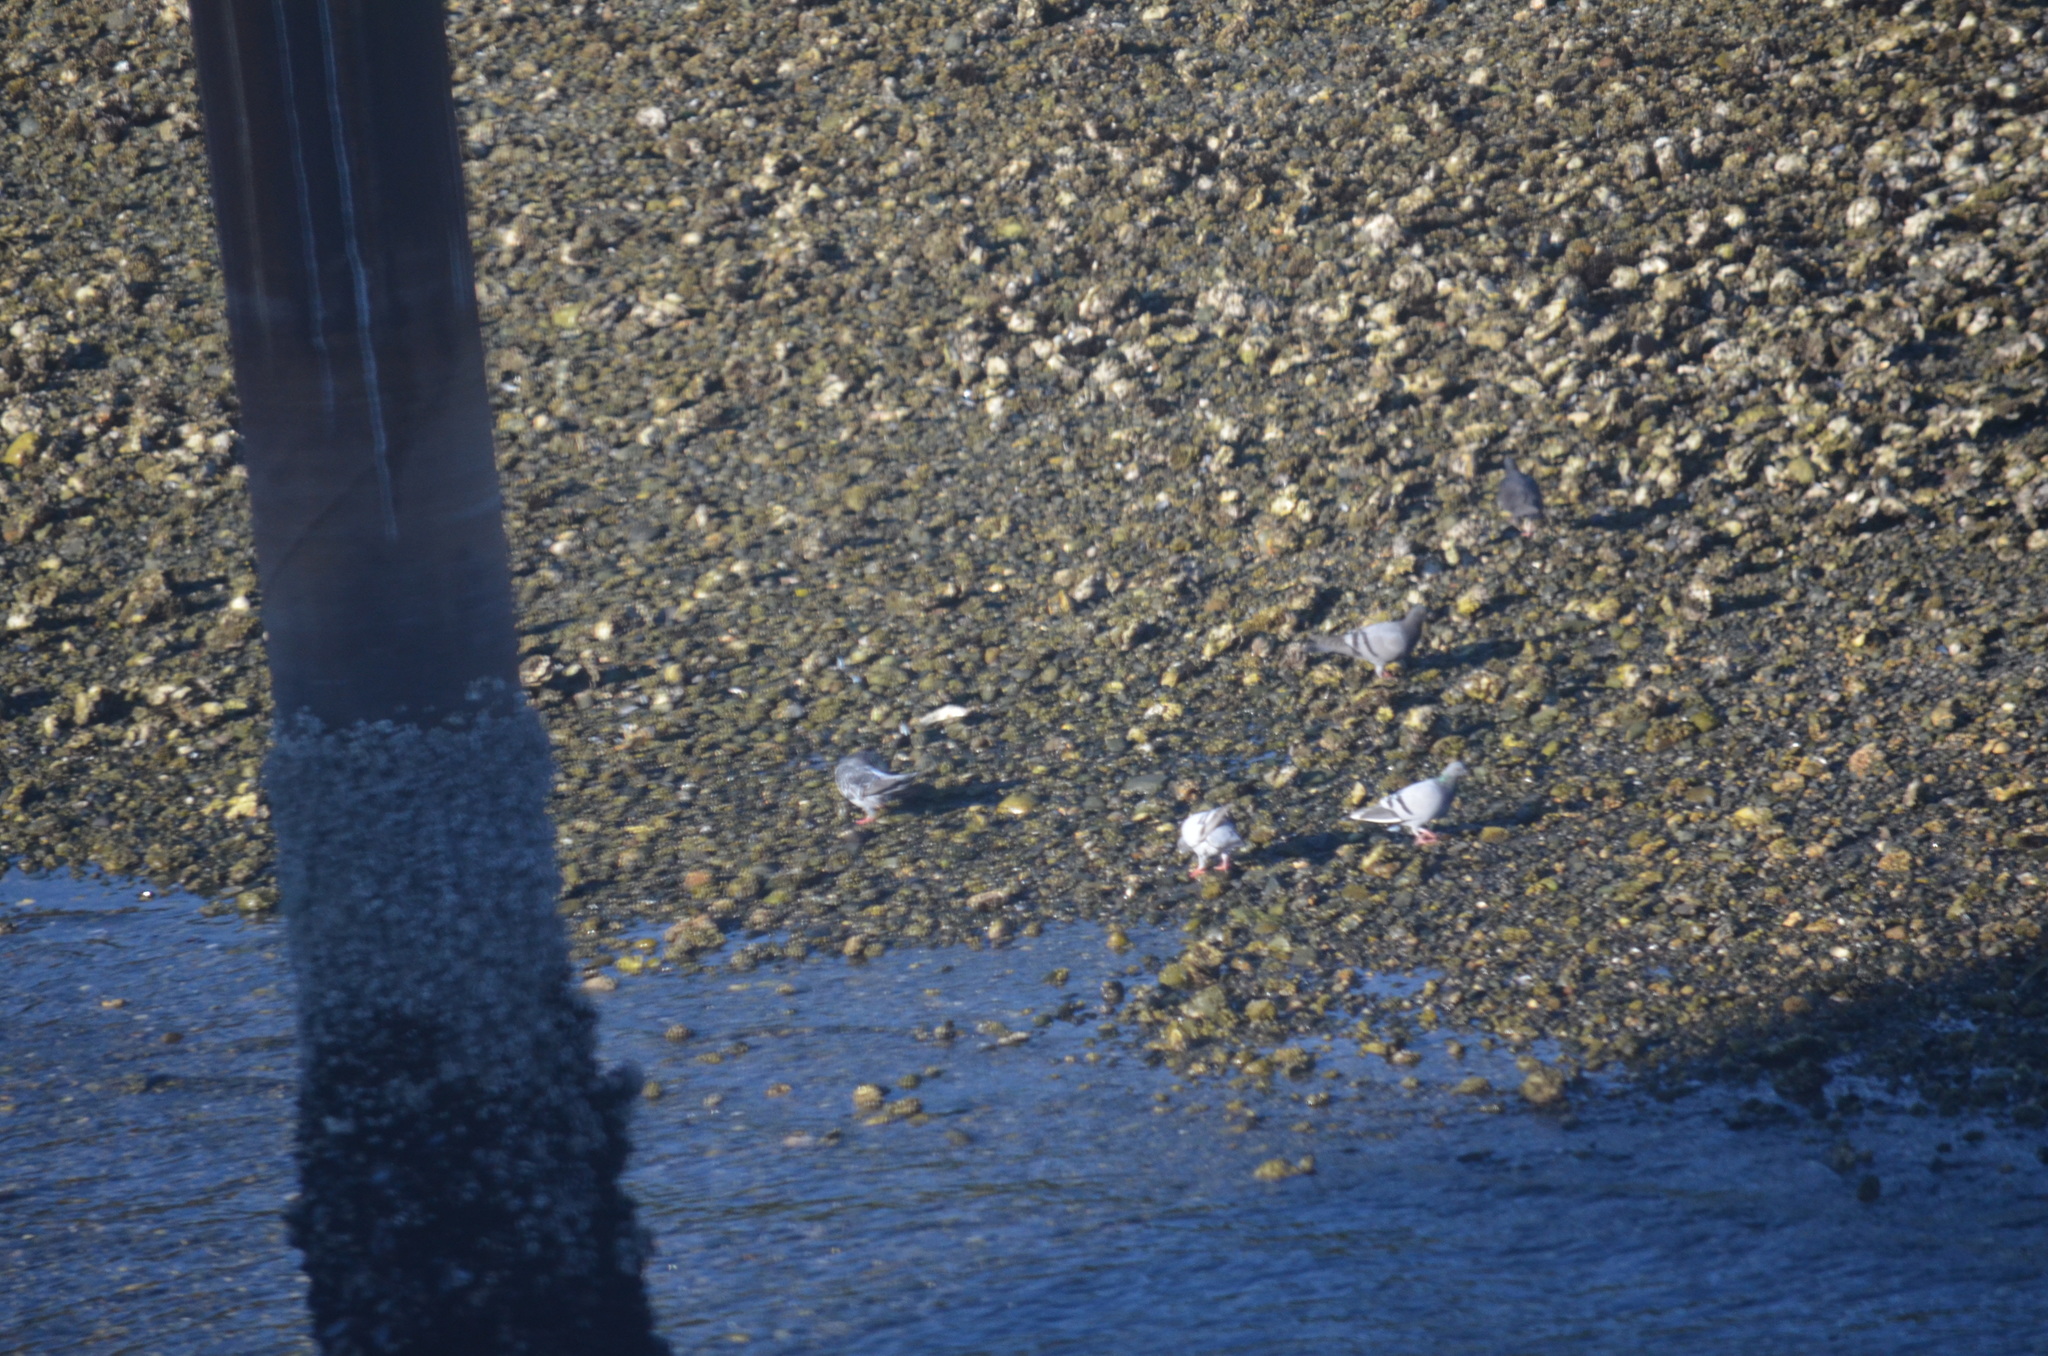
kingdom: Animalia
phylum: Chordata
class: Aves
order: Columbiformes
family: Columbidae
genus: Columba
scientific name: Columba livia
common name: Rock pigeon
